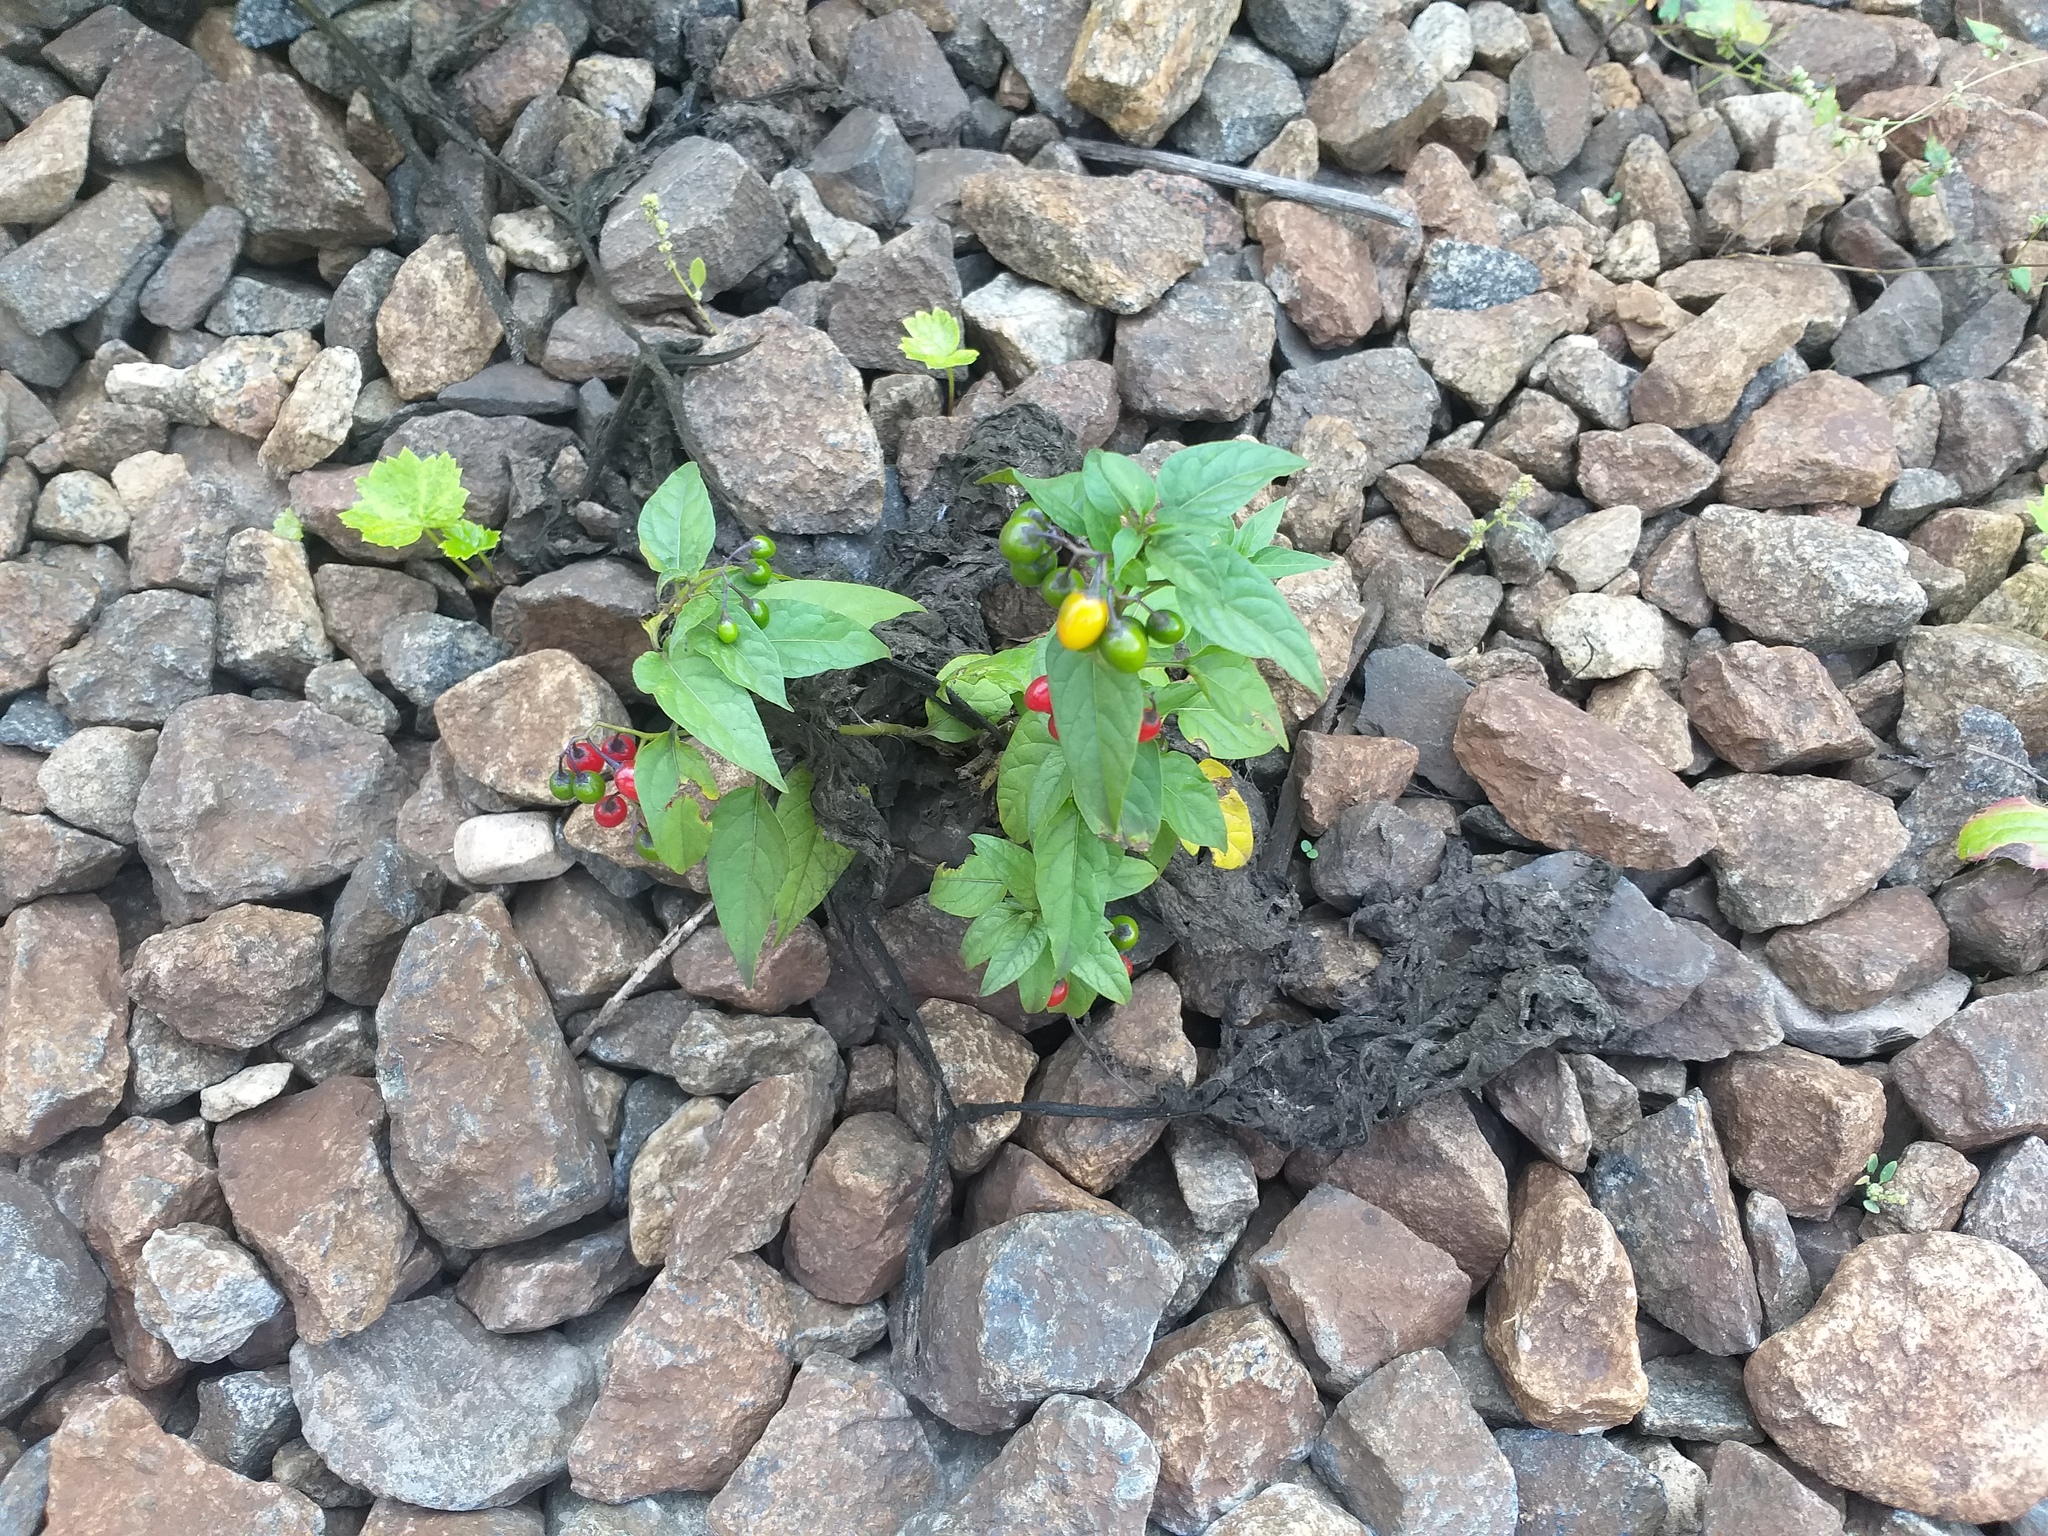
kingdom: Plantae
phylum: Tracheophyta
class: Magnoliopsida
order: Solanales
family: Solanaceae
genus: Solanum
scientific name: Solanum dulcamara
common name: Climbing nightshade
